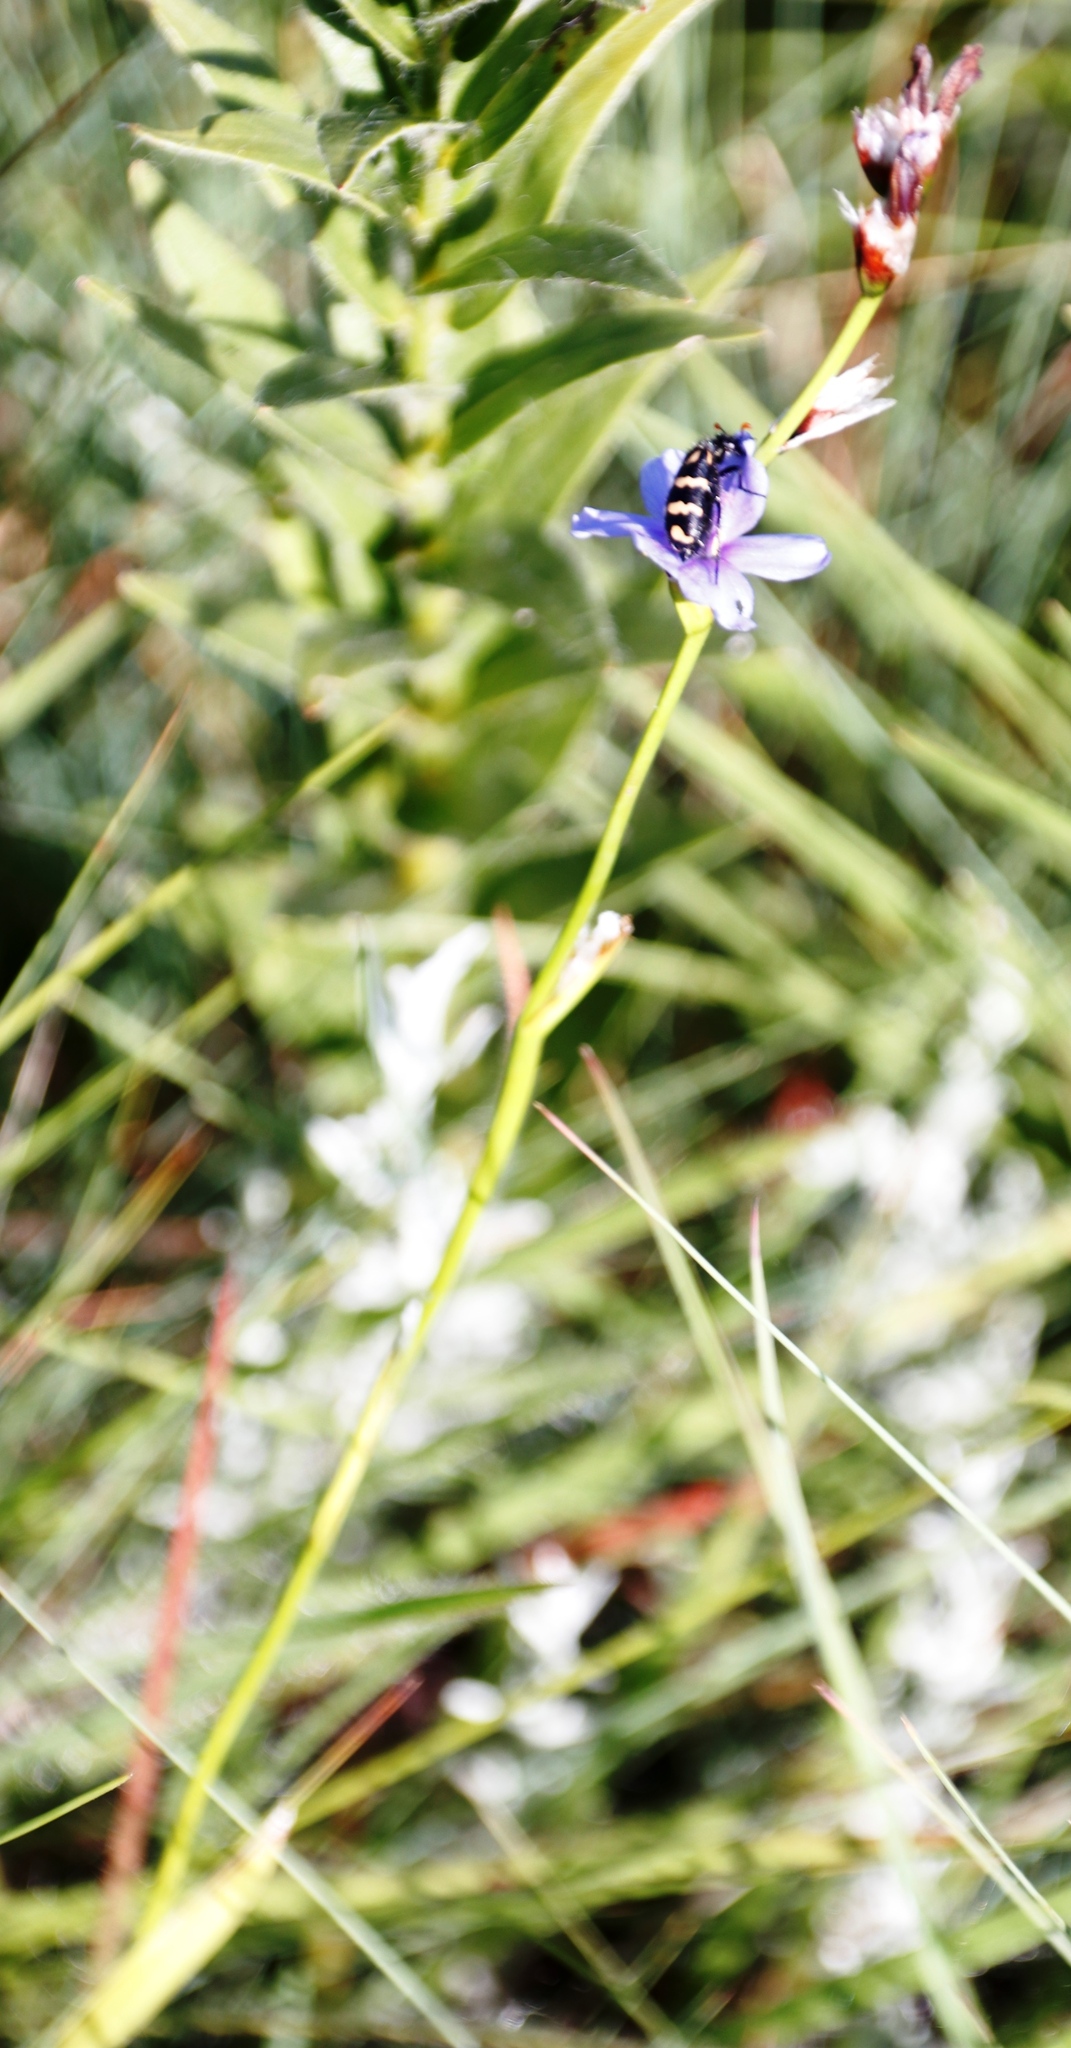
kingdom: Plantae
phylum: Tracheophyta
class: Liliopsida
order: Asparagales
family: Iridaceae
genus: Aristea
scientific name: Aristea torulosa
